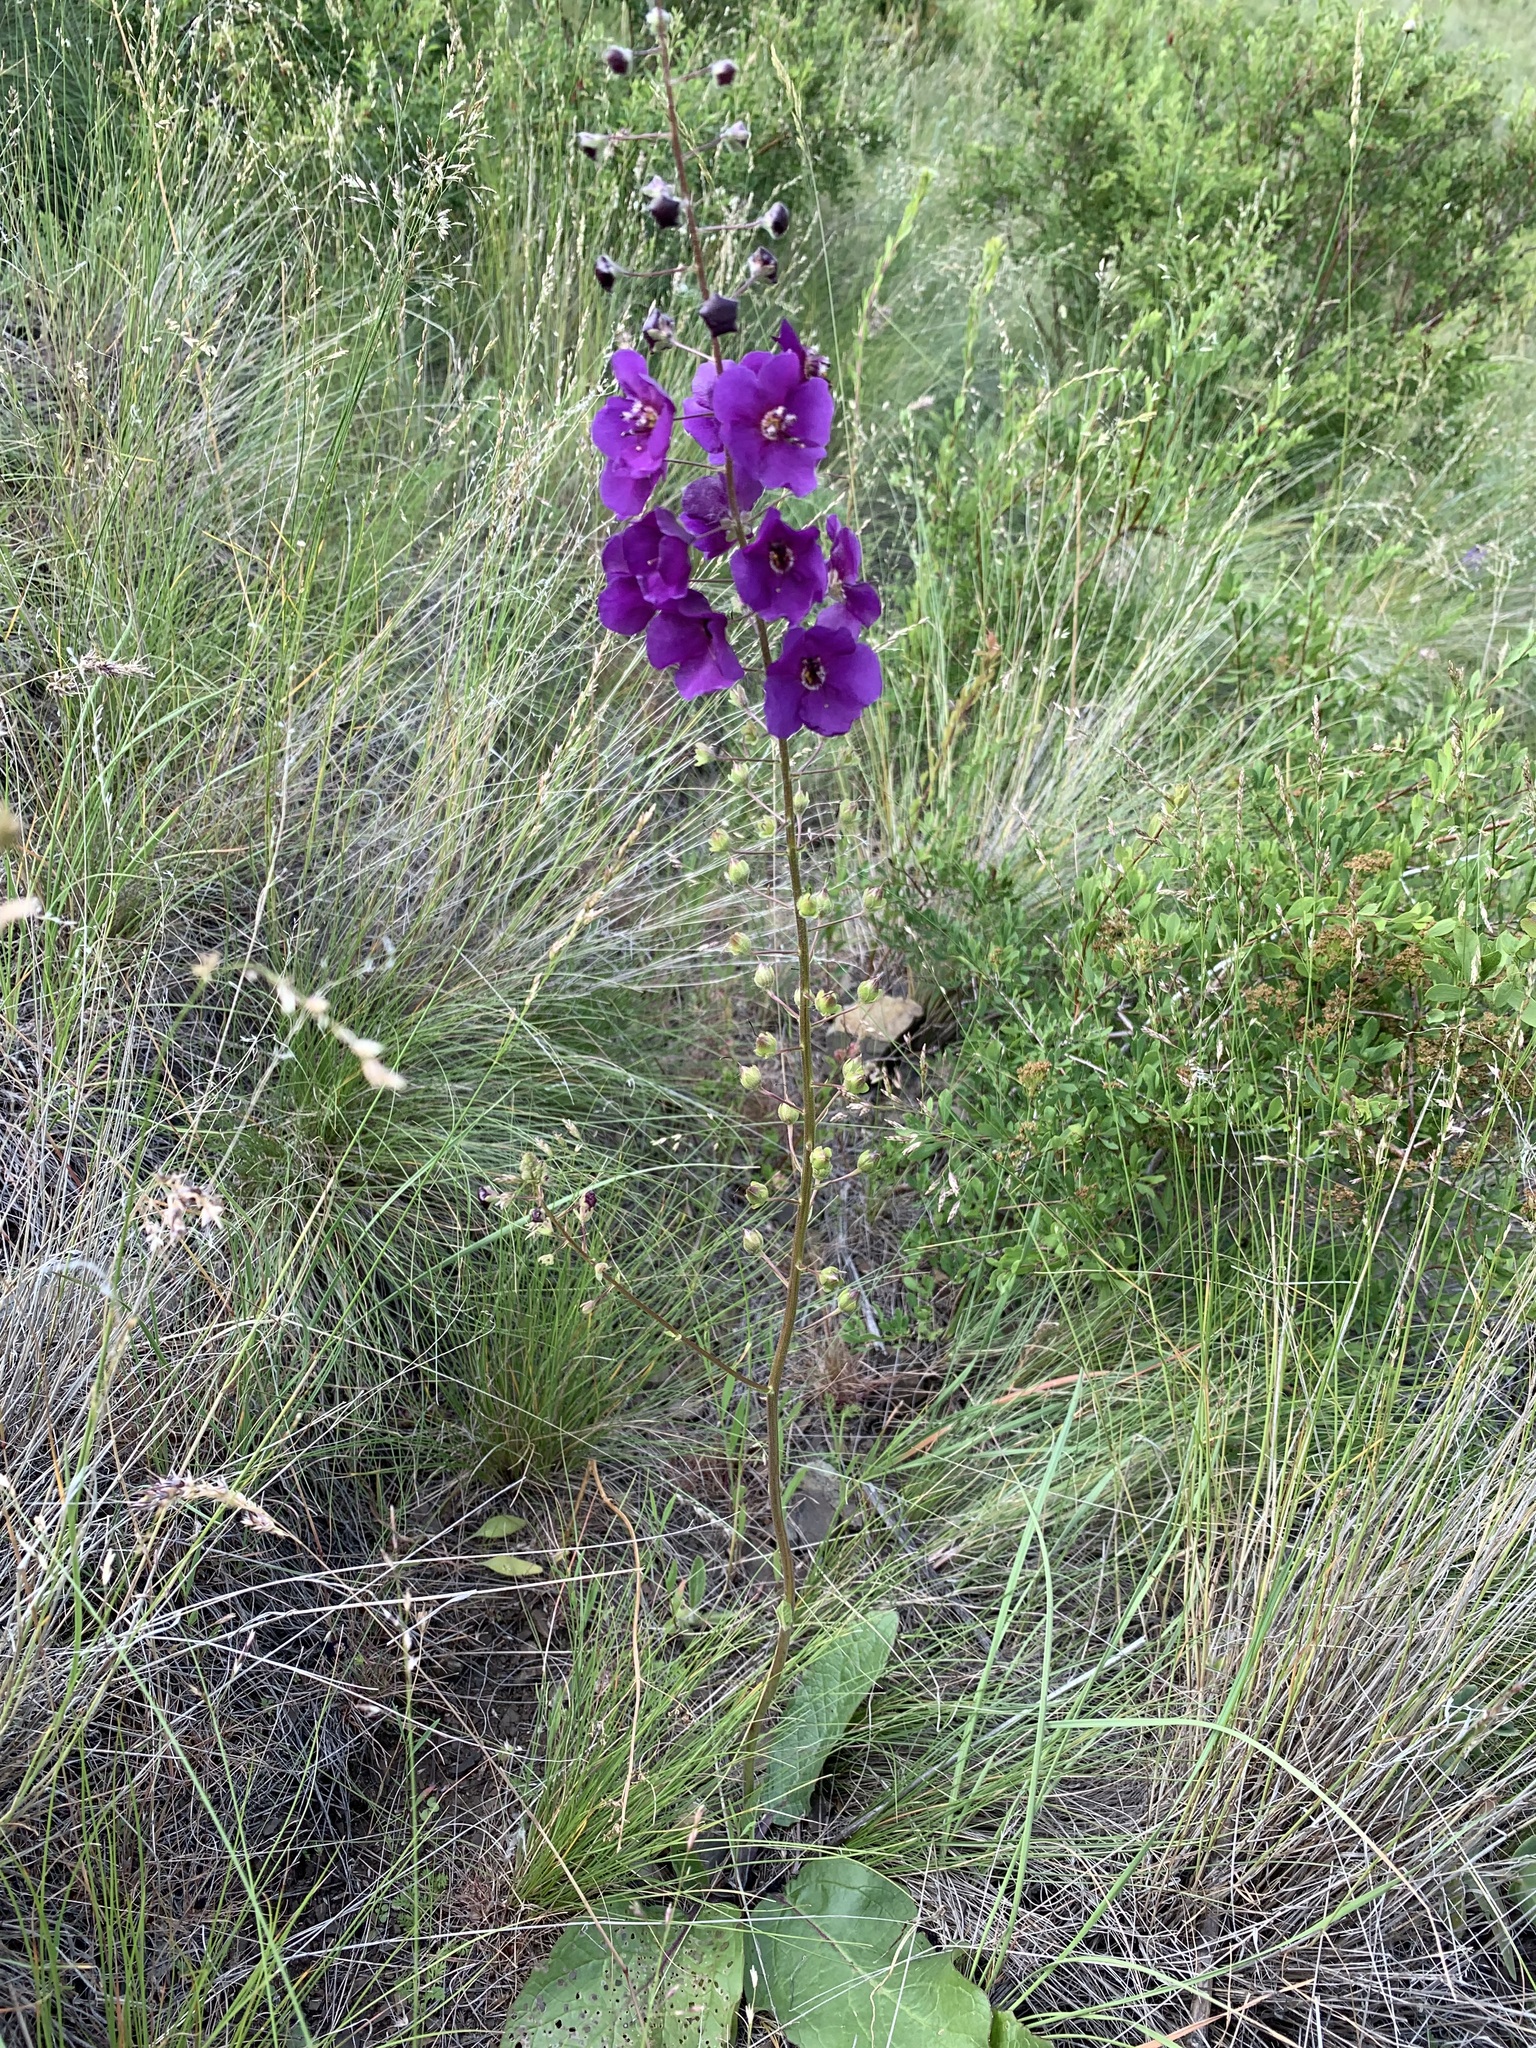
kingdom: Plantae
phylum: Tracheophyta
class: Magnoliopsida
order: Lamiales
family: Scrophulariaceae
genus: Verbascum
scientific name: Verbascum phoeniceum
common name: Purple mullein
